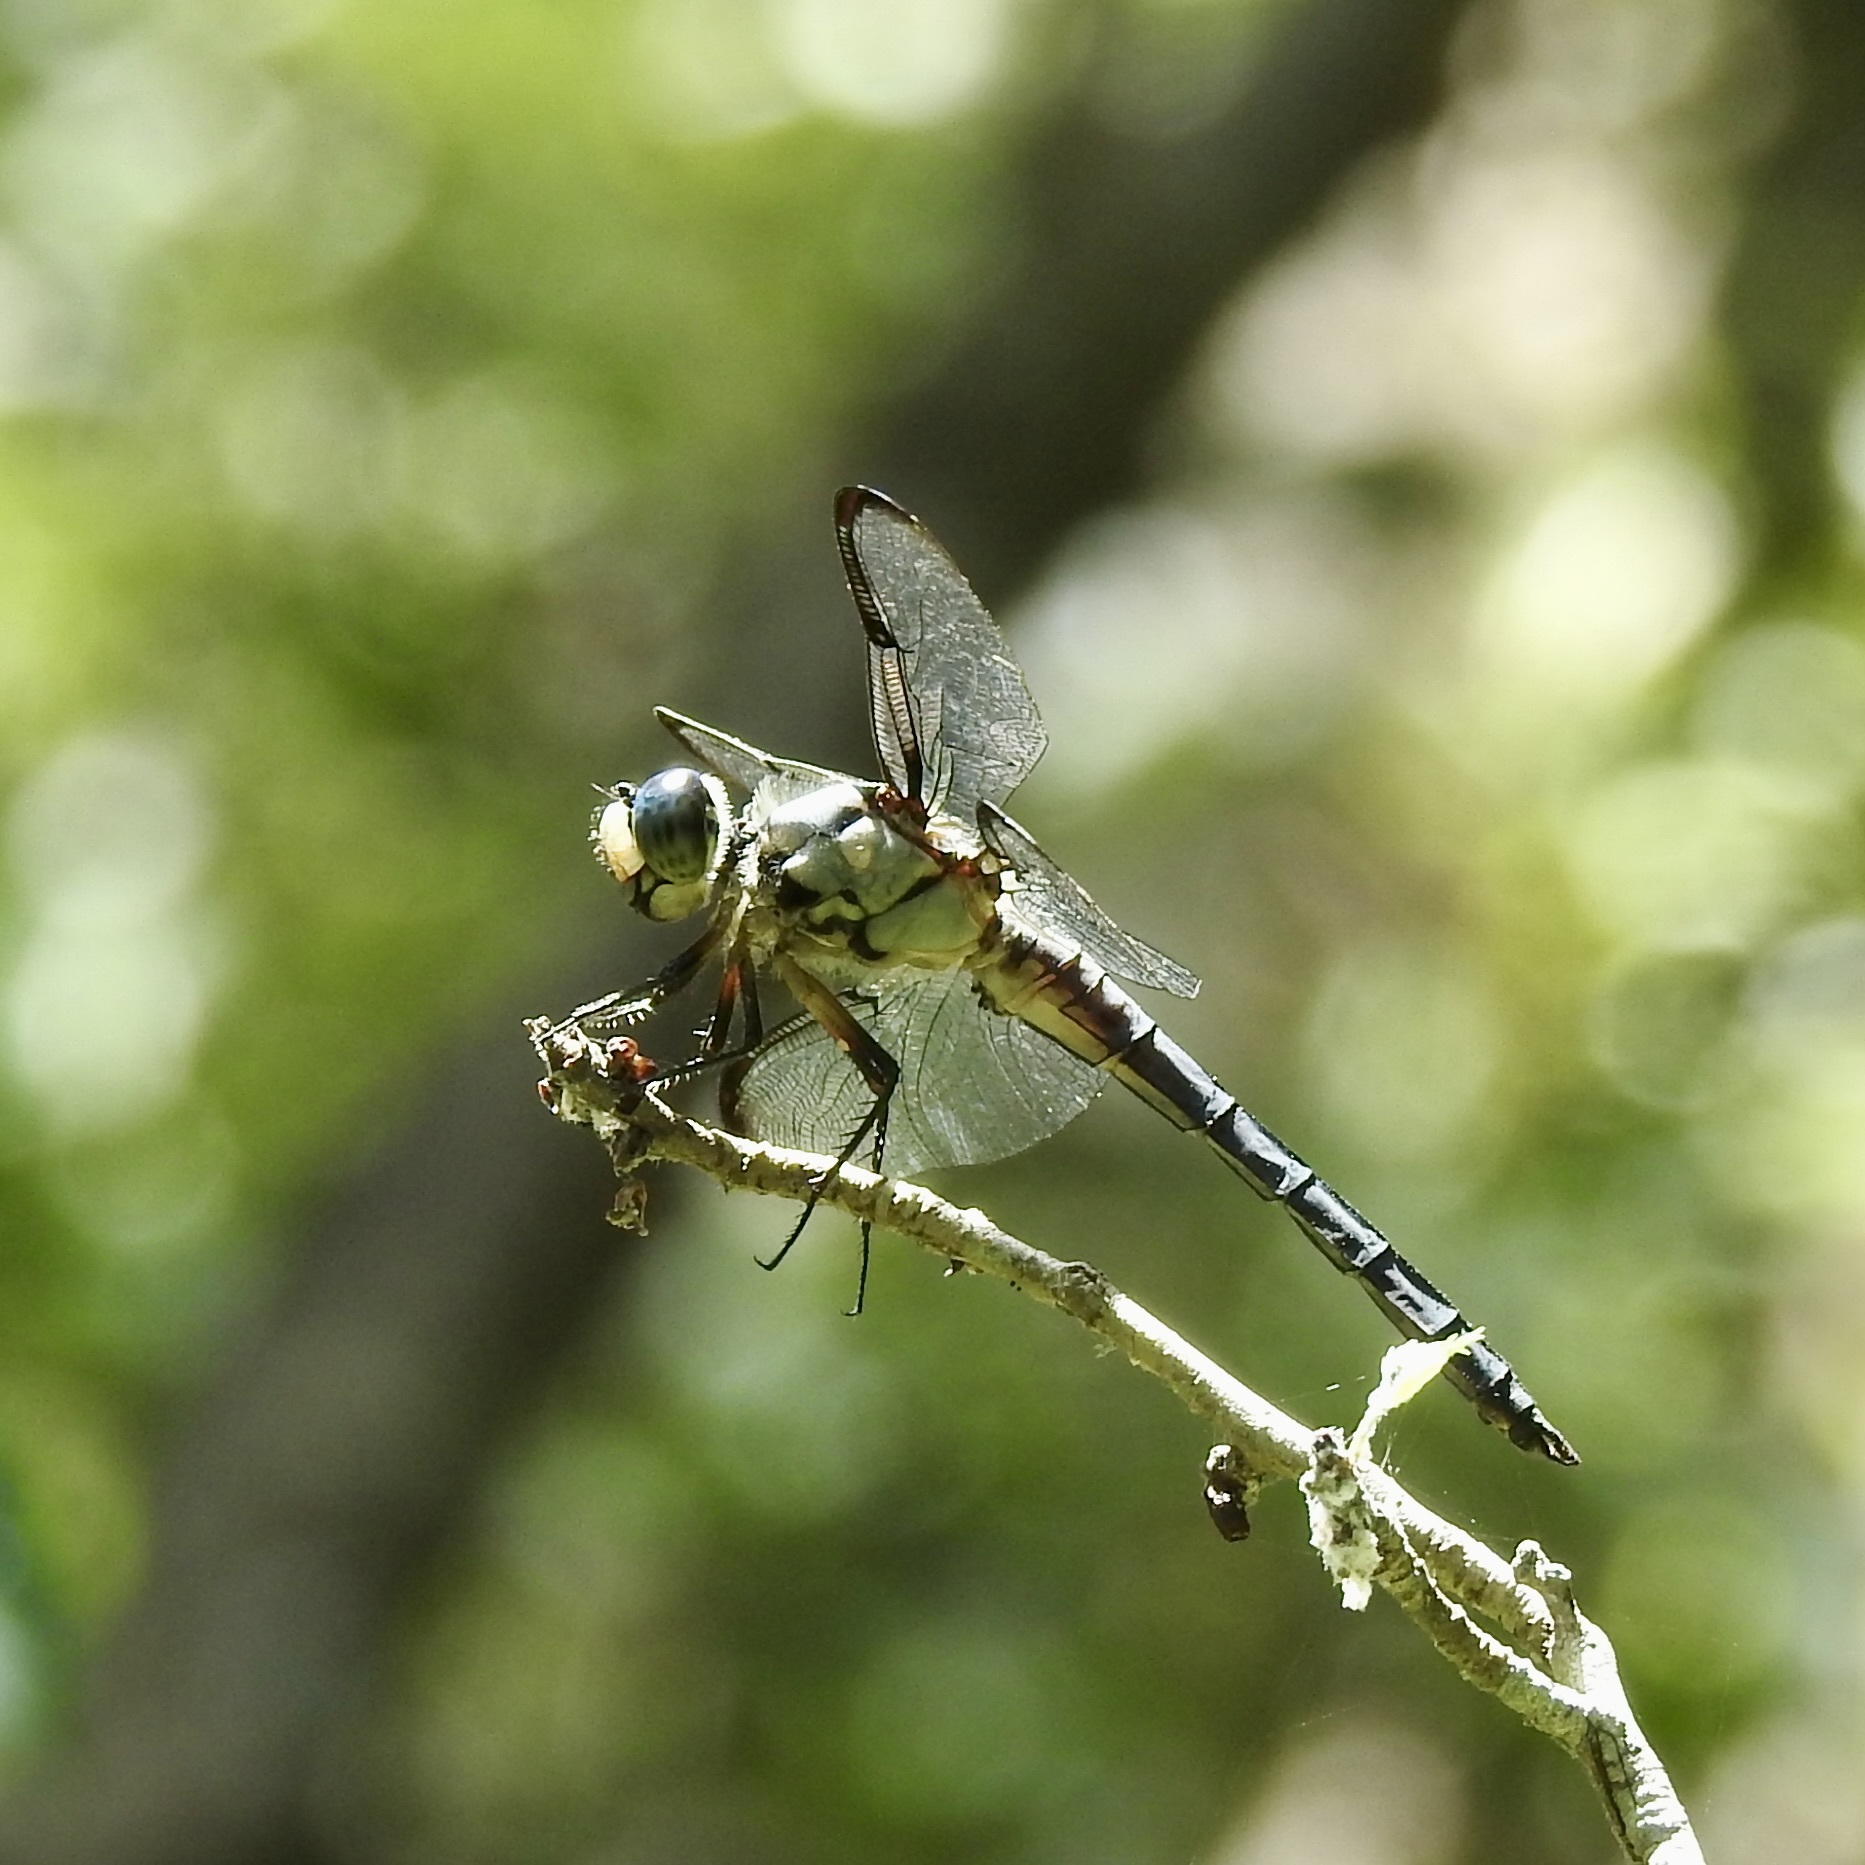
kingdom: Animalia
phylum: Arthropoda
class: Insecta
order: Odonata
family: Libellulidae
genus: Libellula
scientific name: Libellula vibrans
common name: Great blue skimmer
